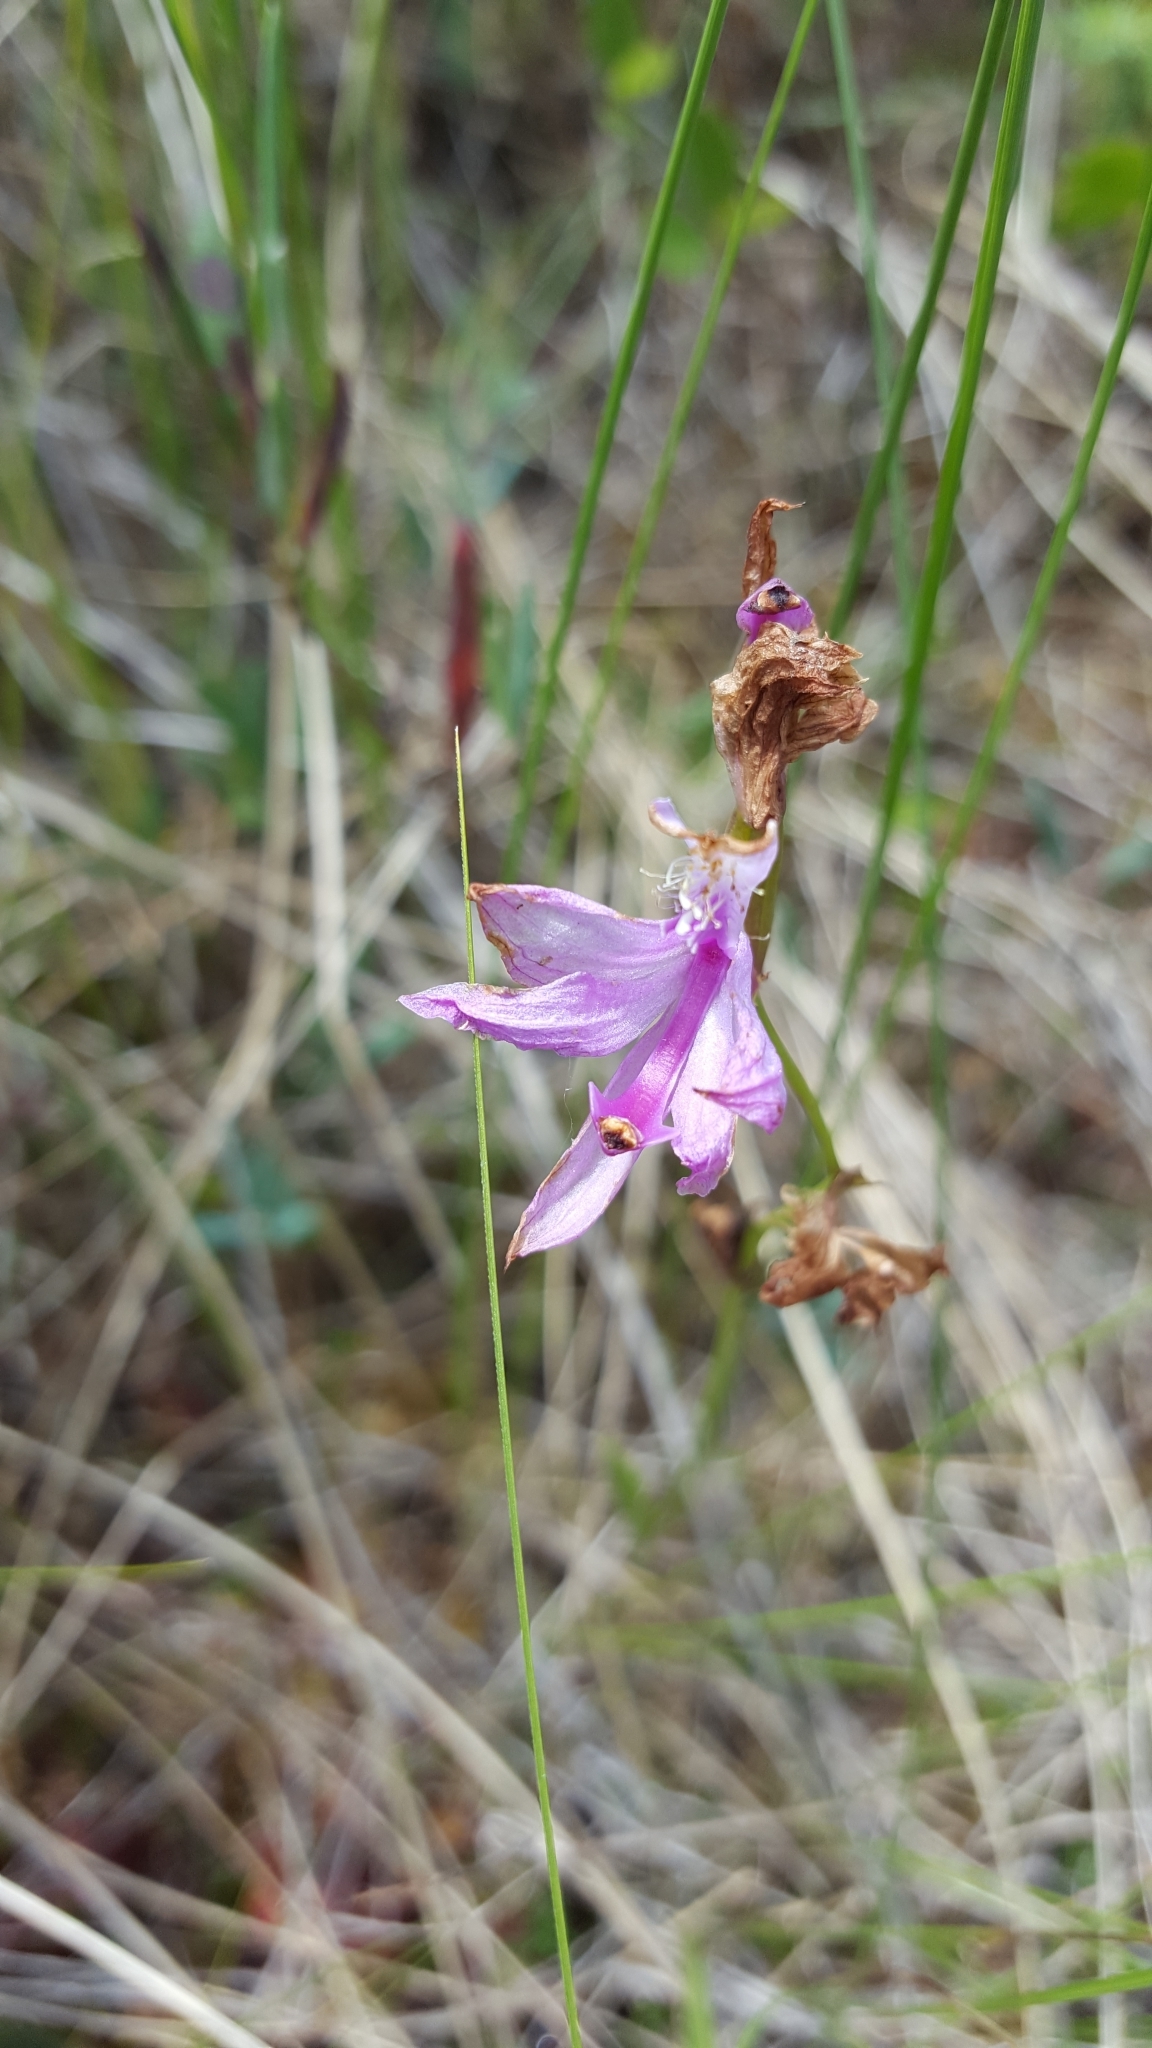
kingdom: Plantae
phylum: Tracheophyta
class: Liliopsida
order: Asparagales
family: Orchidaceae
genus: Calopogon
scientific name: Calopogon tuberosus
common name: Grass-pink
